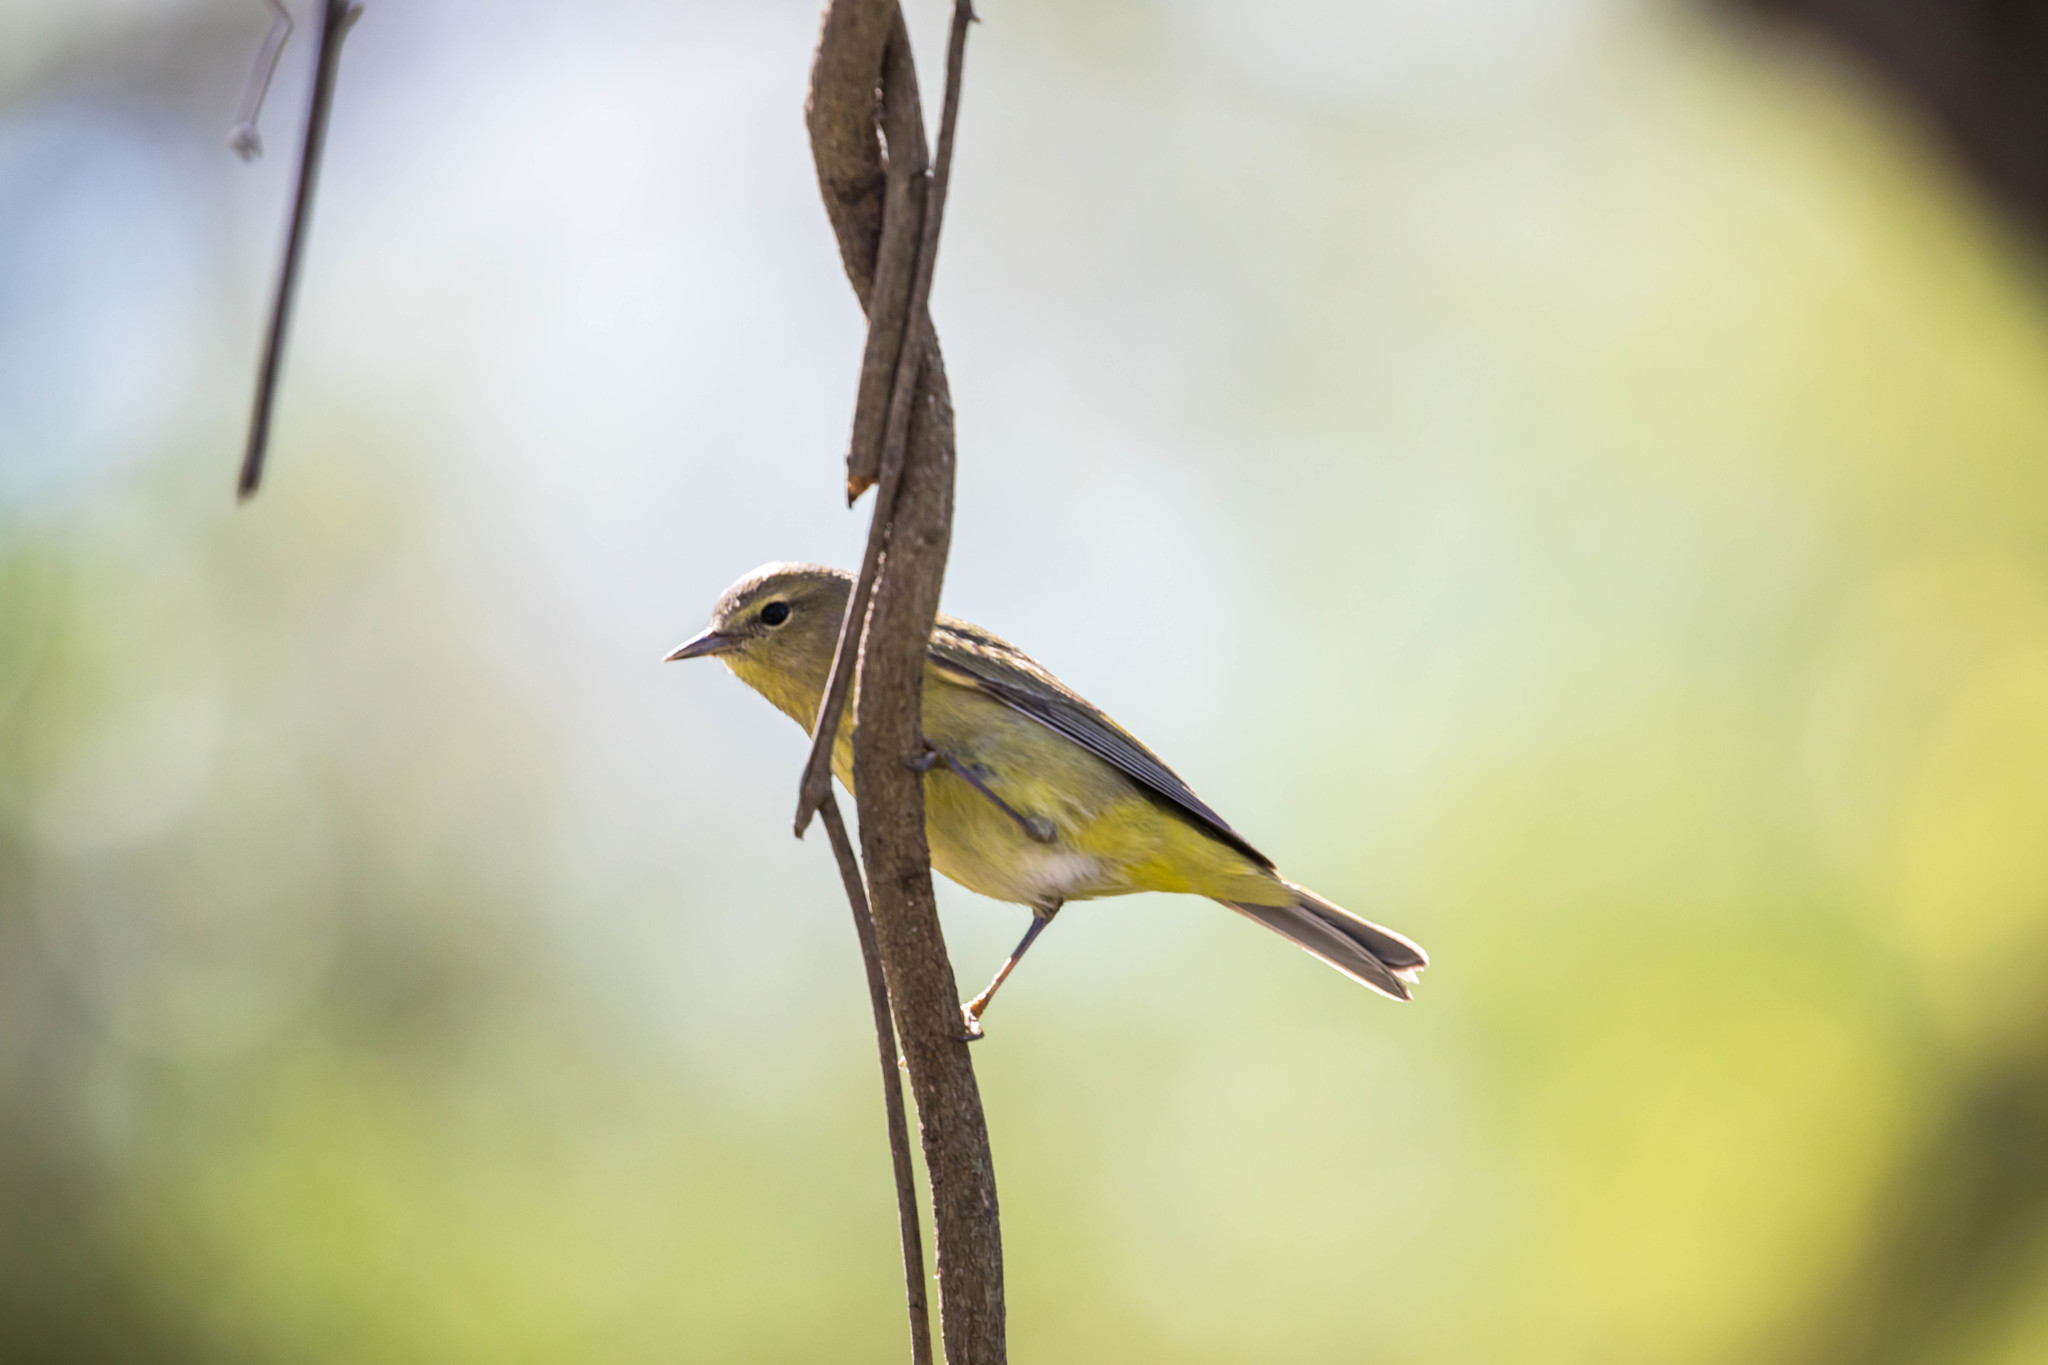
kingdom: Animalia
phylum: Chordata
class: Aves
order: Passeriformes
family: Parulidae
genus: Leiothlypis
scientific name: Leiothlypis celata
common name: Orange-crowned warbler
